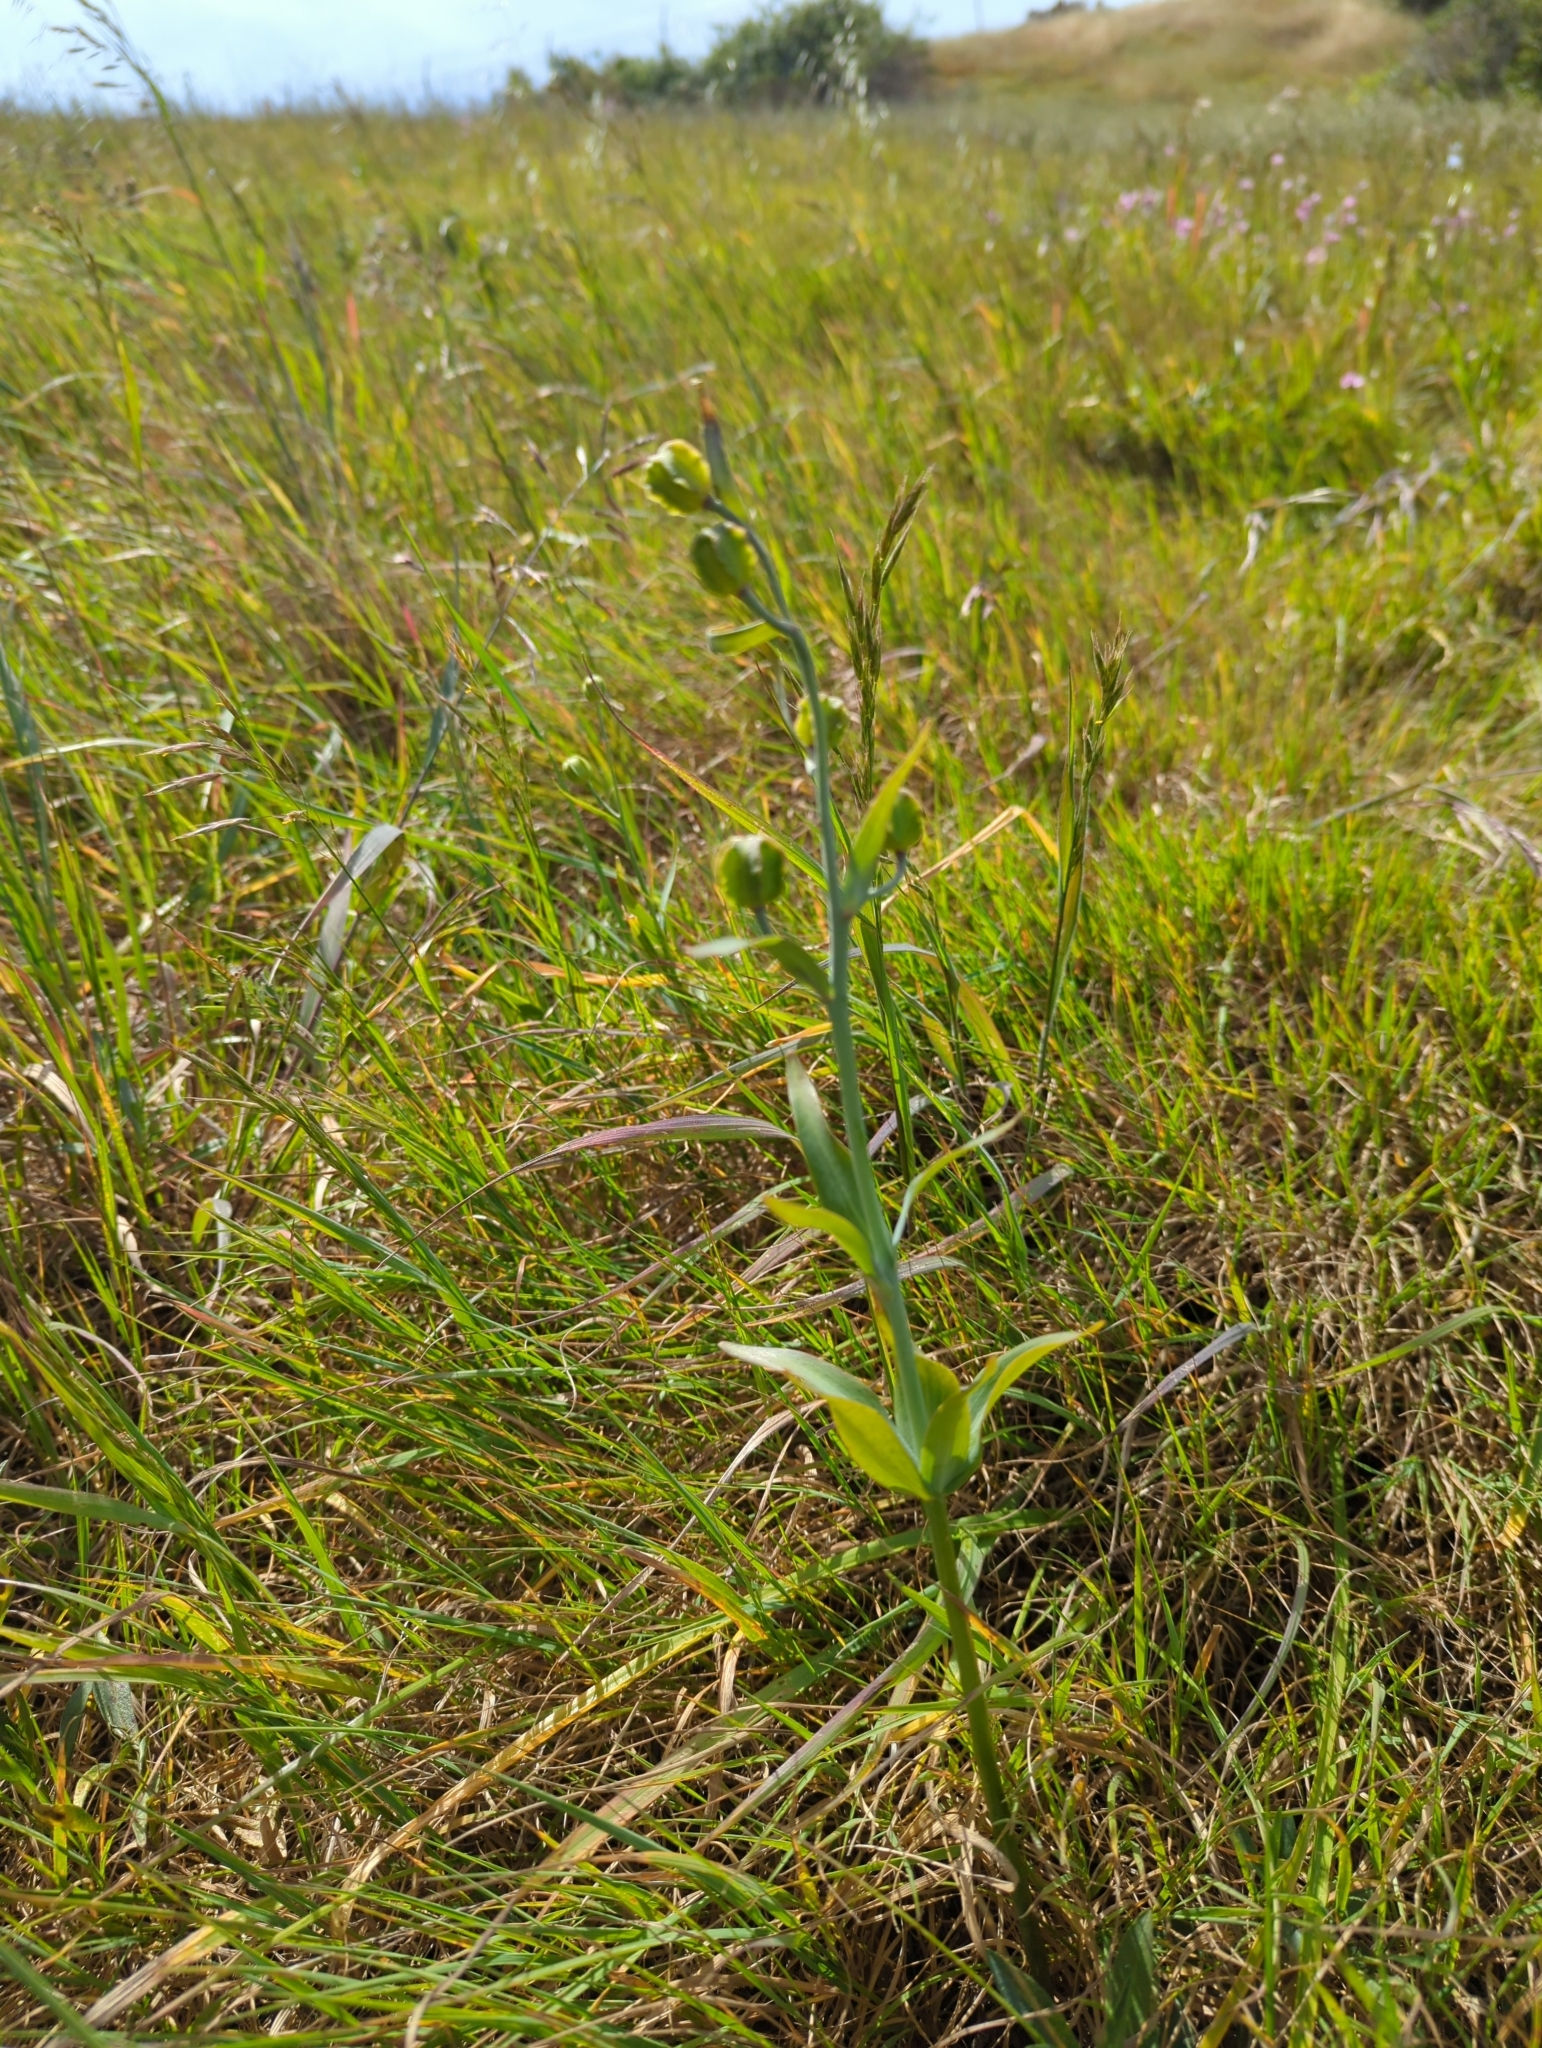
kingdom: Plantae
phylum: Tracheophyta
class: Liliopsida
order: Liliales
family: Liliaceae
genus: Fritillaria
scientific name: Fritillaria affinis
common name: Ojai fritillary
